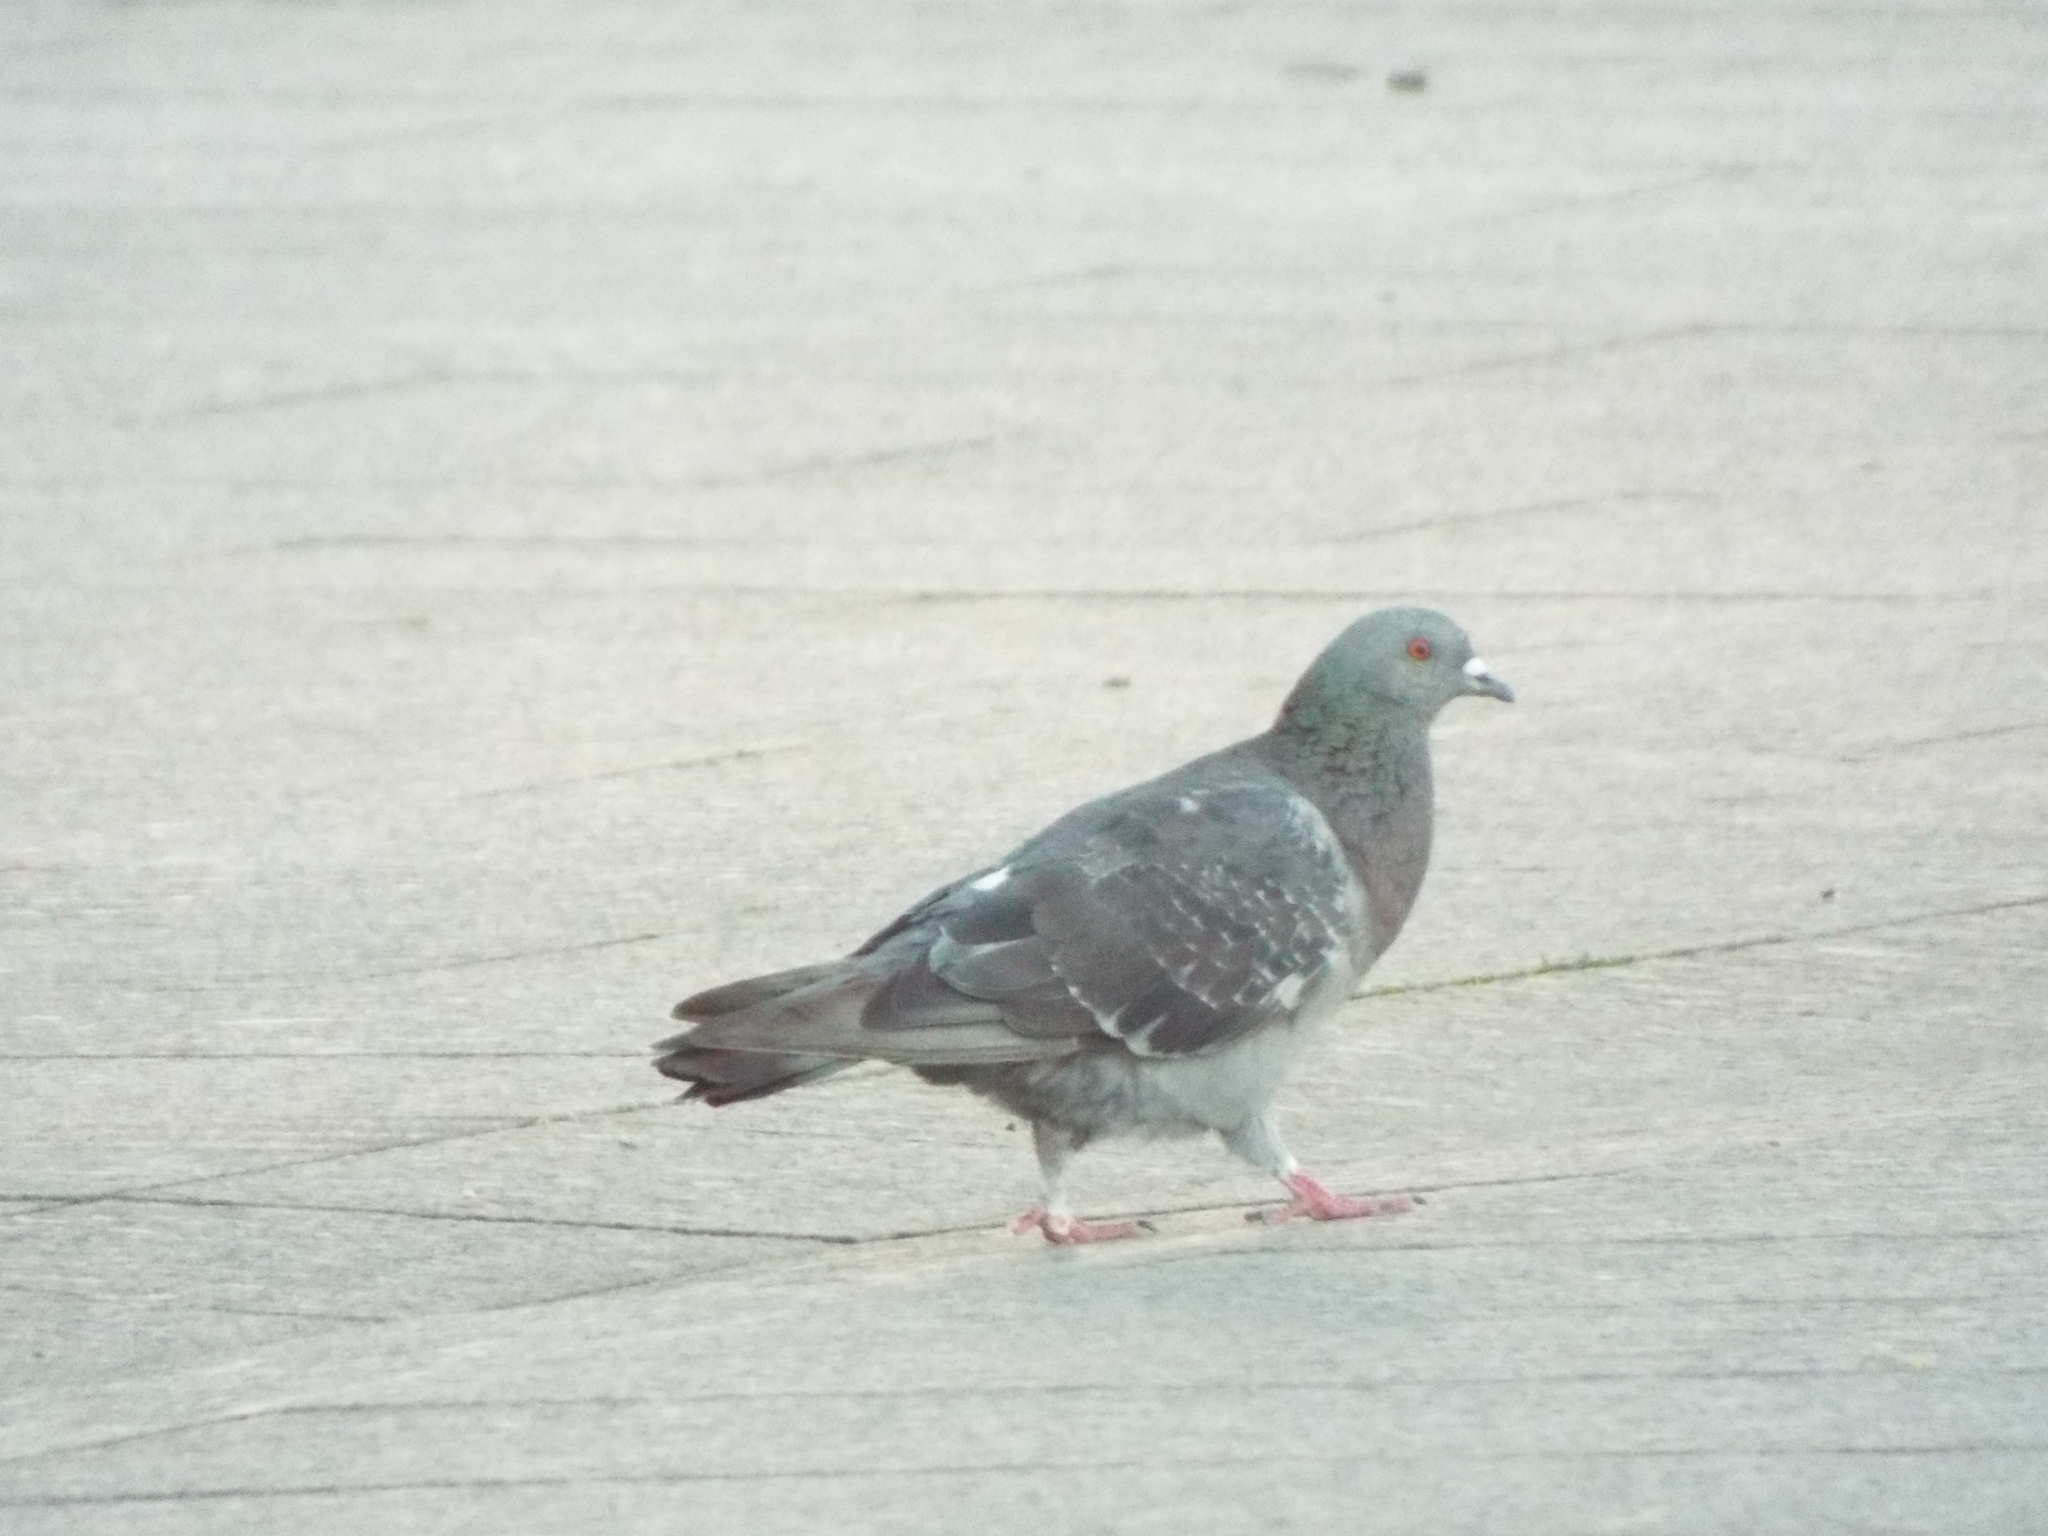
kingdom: Animalia
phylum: Chordata
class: Aves
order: Columbiformes
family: Columbidae
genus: Columba
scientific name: Columba livia
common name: Rock pigeon
